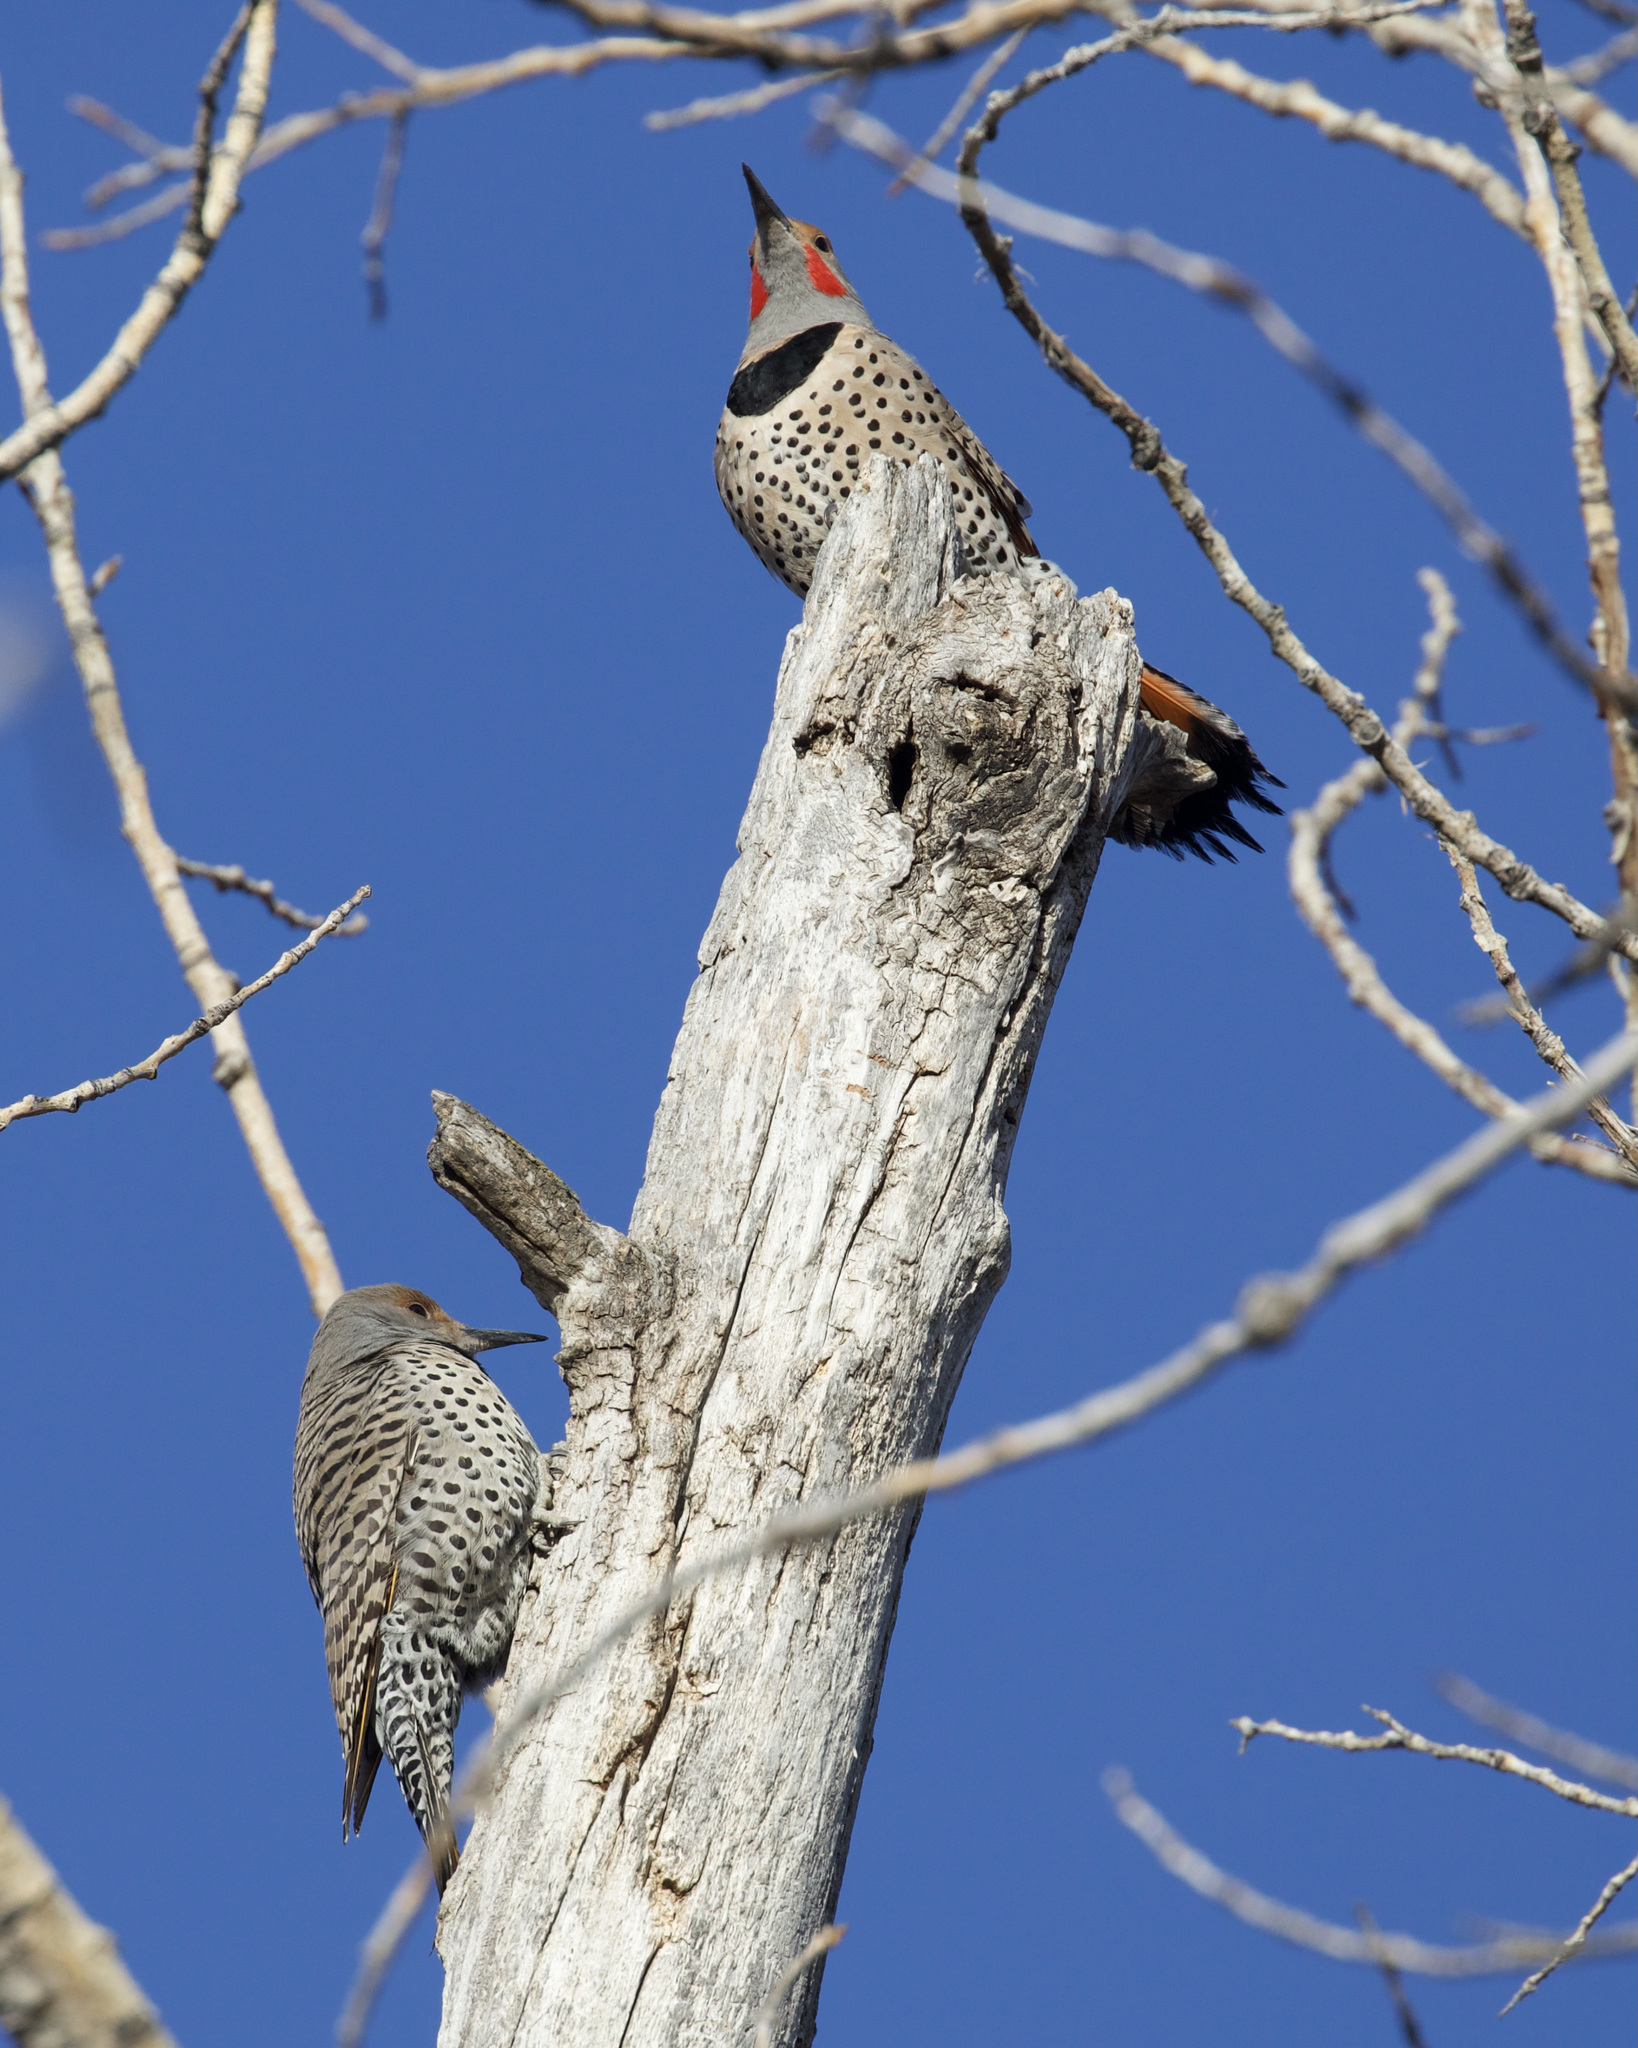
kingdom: Animalia
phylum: Chordata
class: Aves
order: Piciformes
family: Picidae
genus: Colaptes
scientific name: Colaptes auratus
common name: Northern flicker
